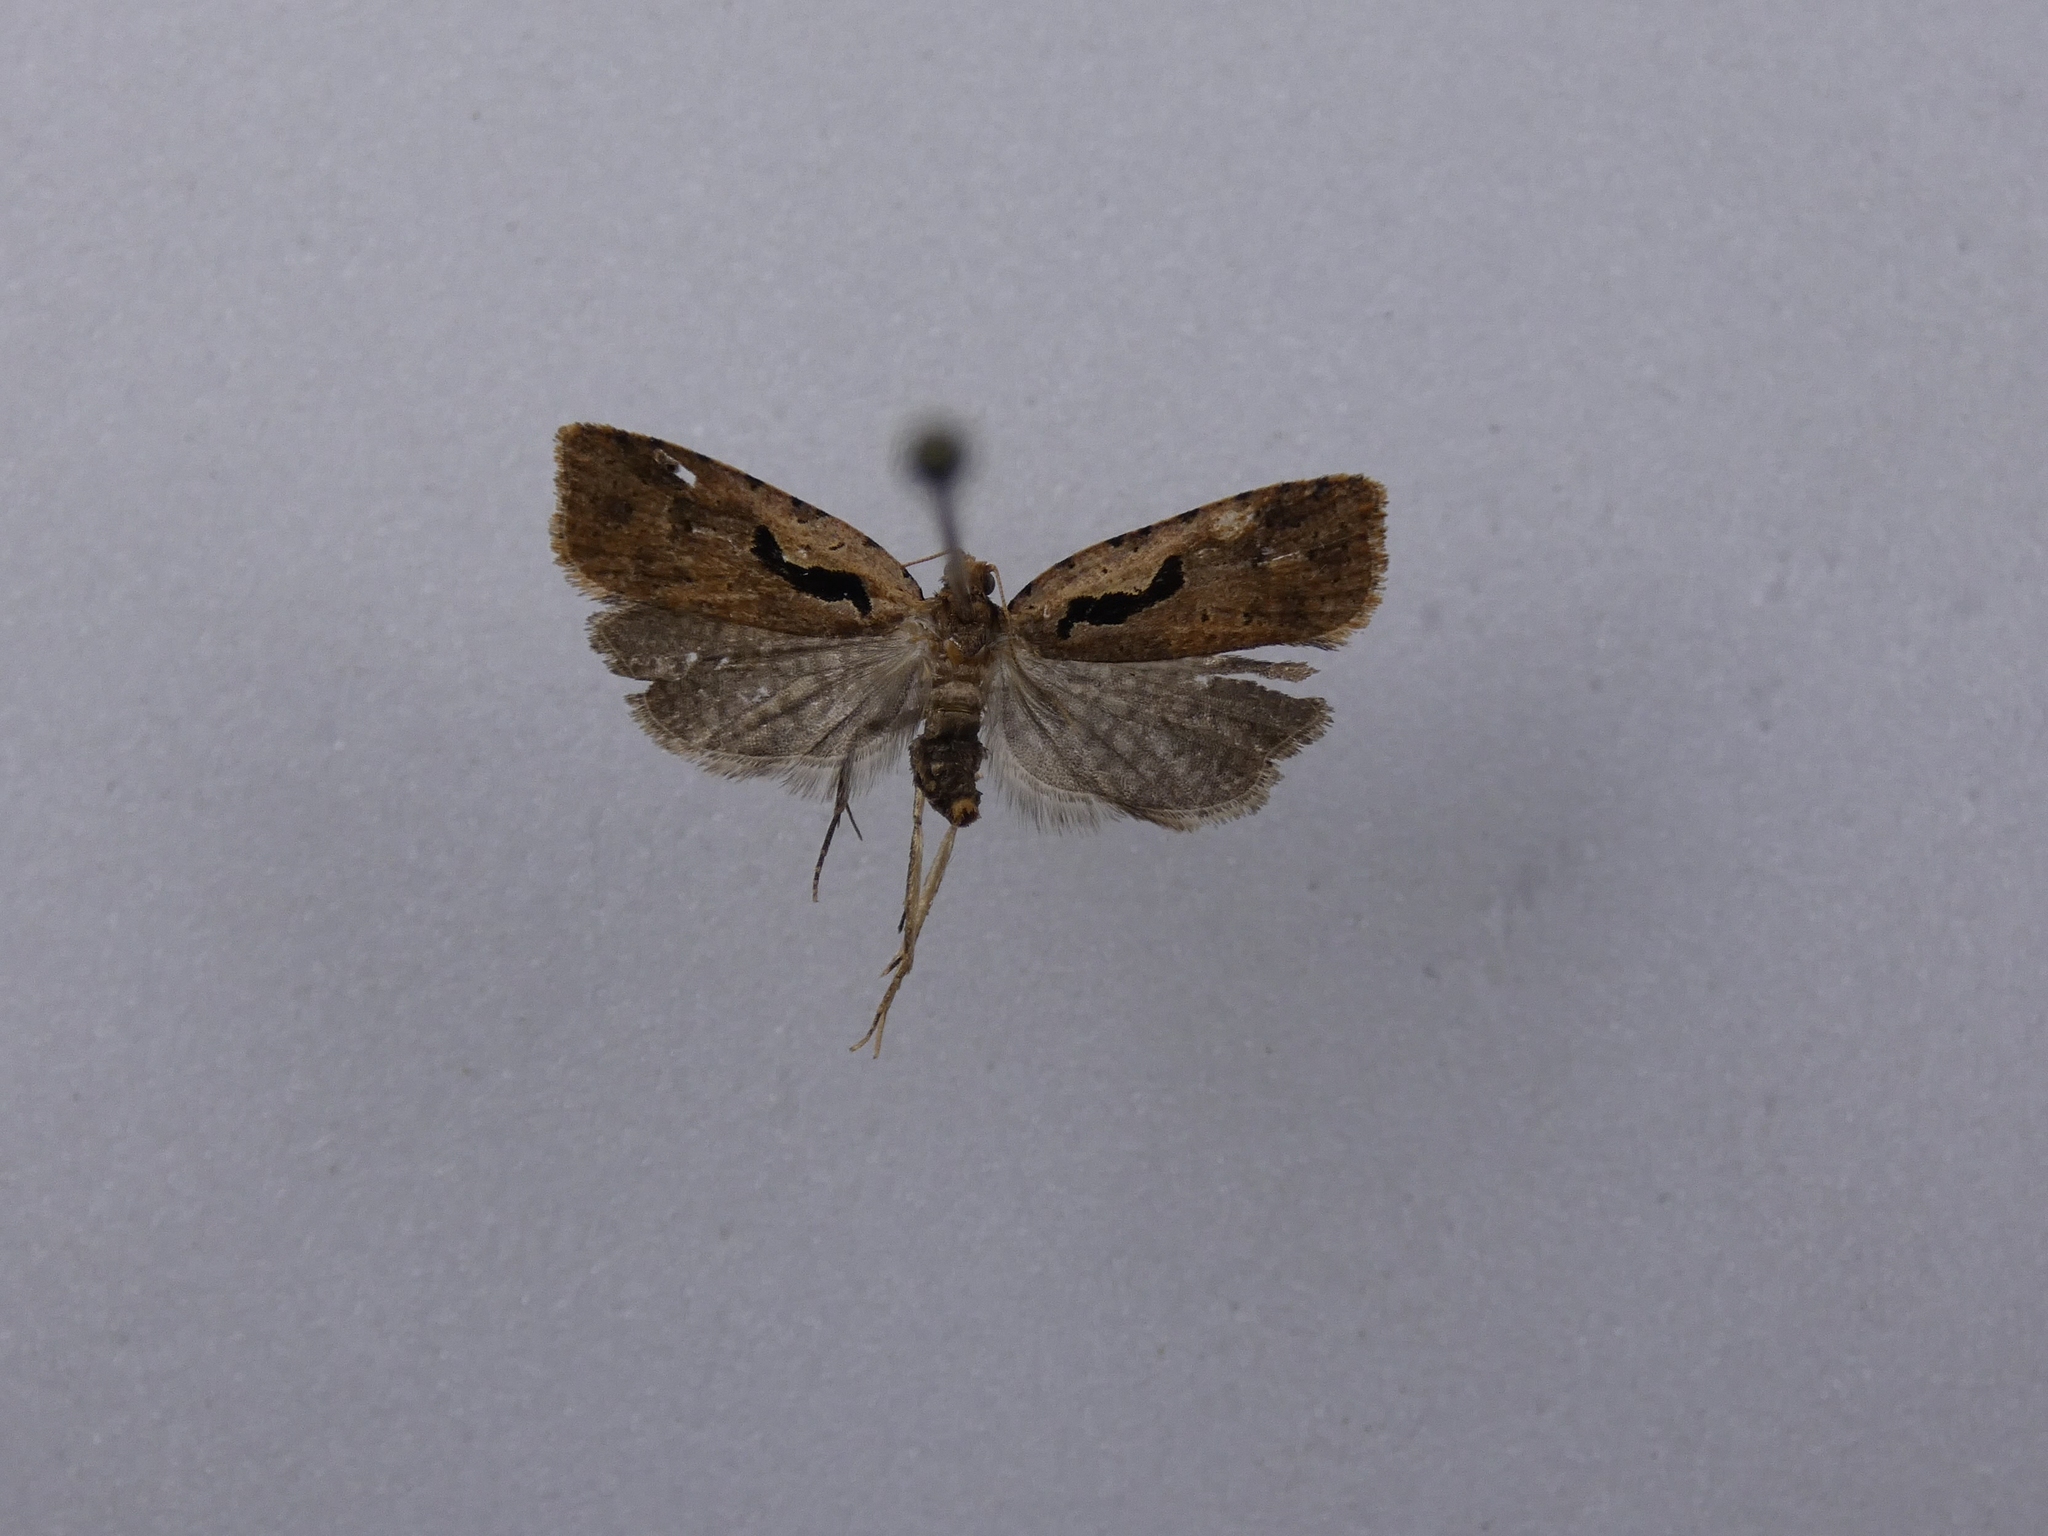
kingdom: Animalia
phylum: Arthropoda
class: Insecta
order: Lepidoptera
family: Tortricidae
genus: Cnephasia
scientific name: Cnephasia jactatana
